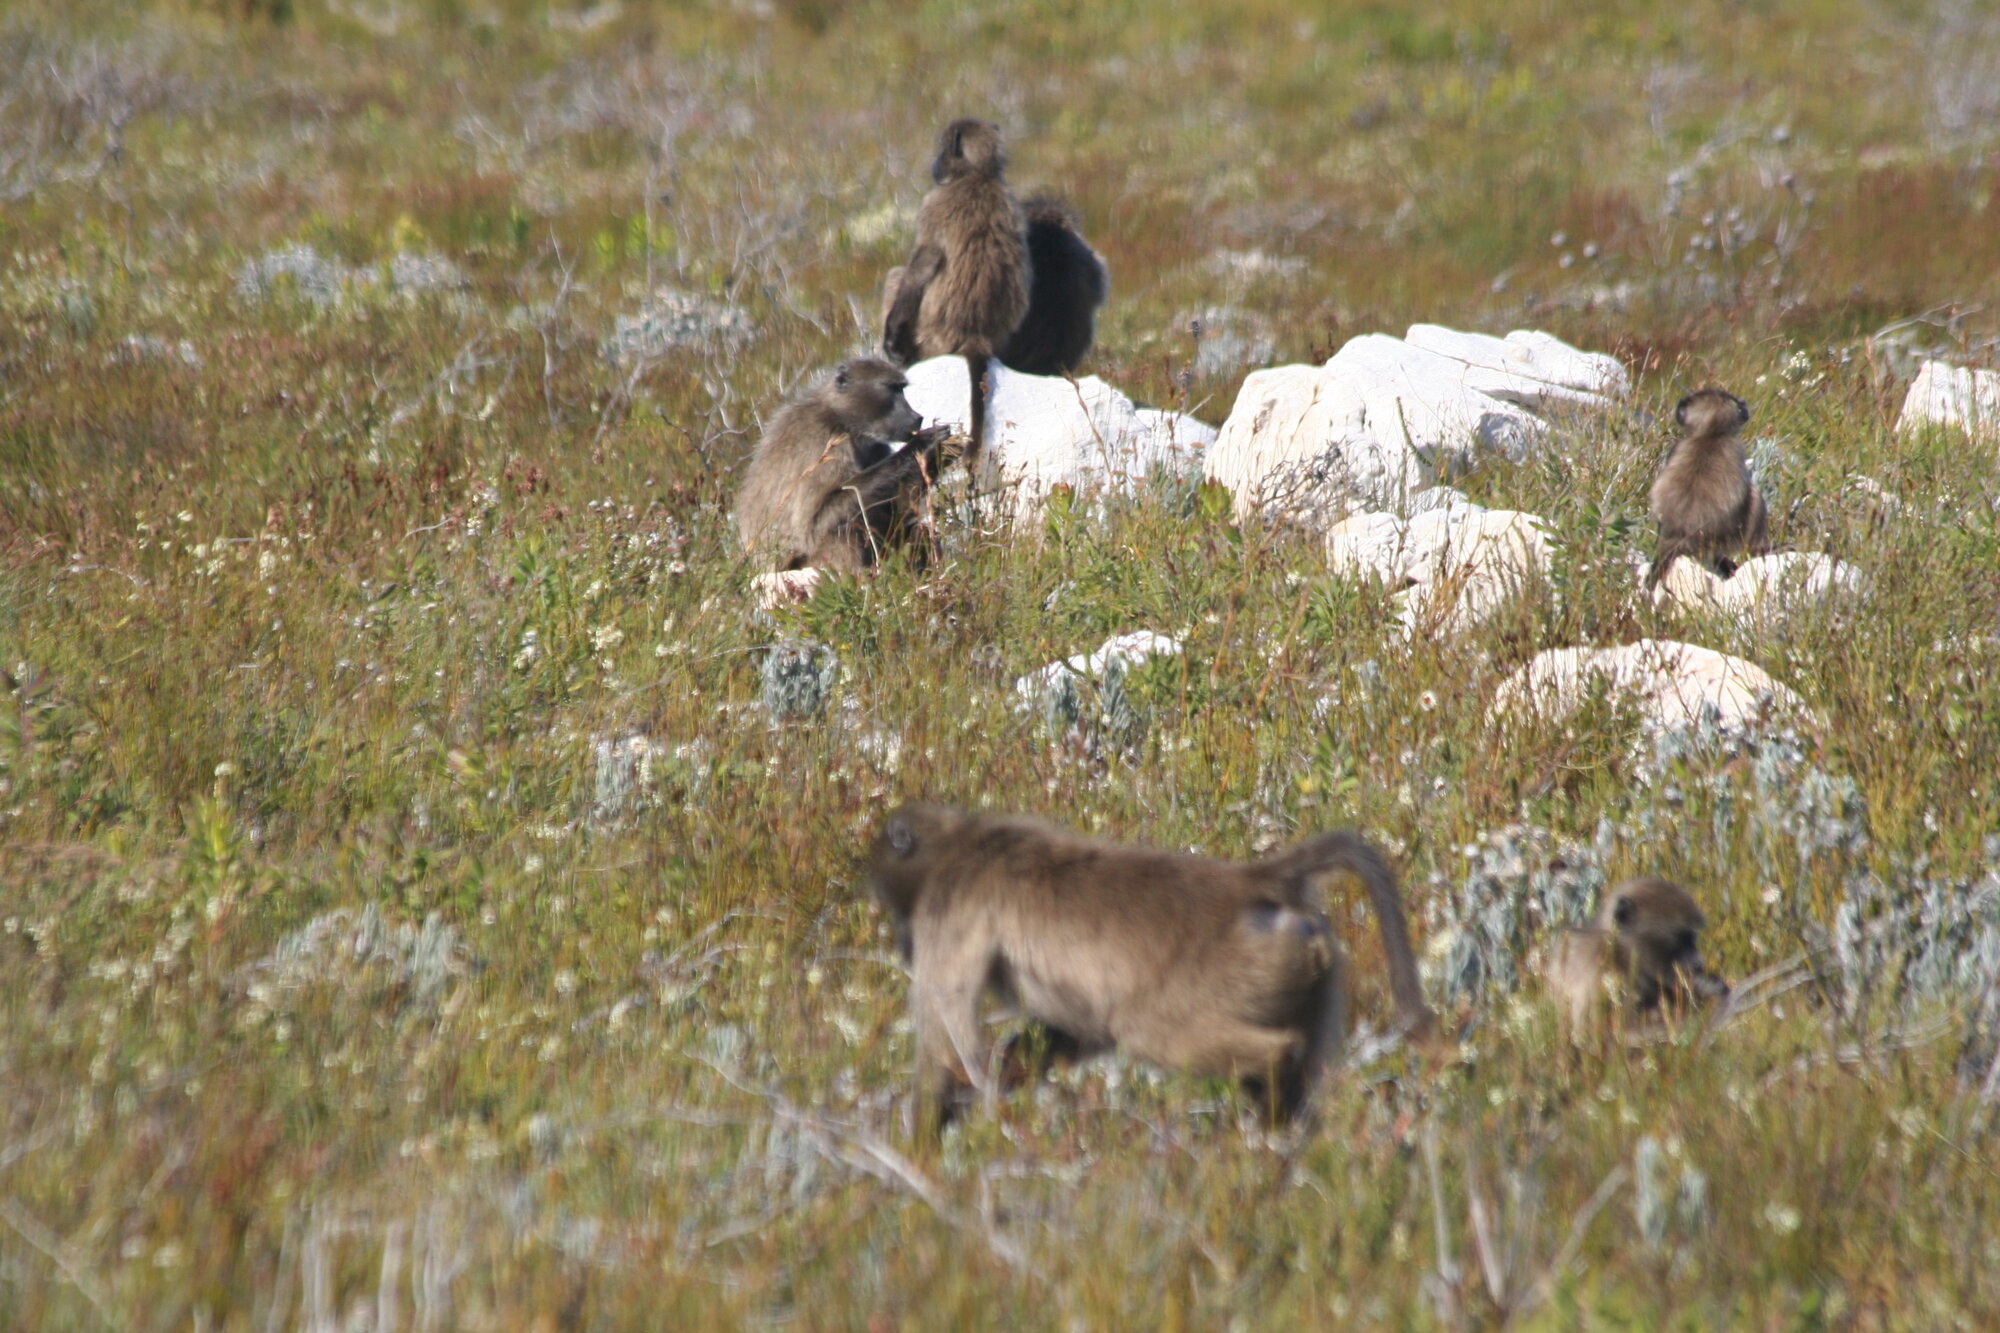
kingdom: Animalia
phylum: Chordata
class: Mammalia
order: Primates
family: Cercopithecidae
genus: Papio
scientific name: Papio ursinus
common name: Chacma baboon
